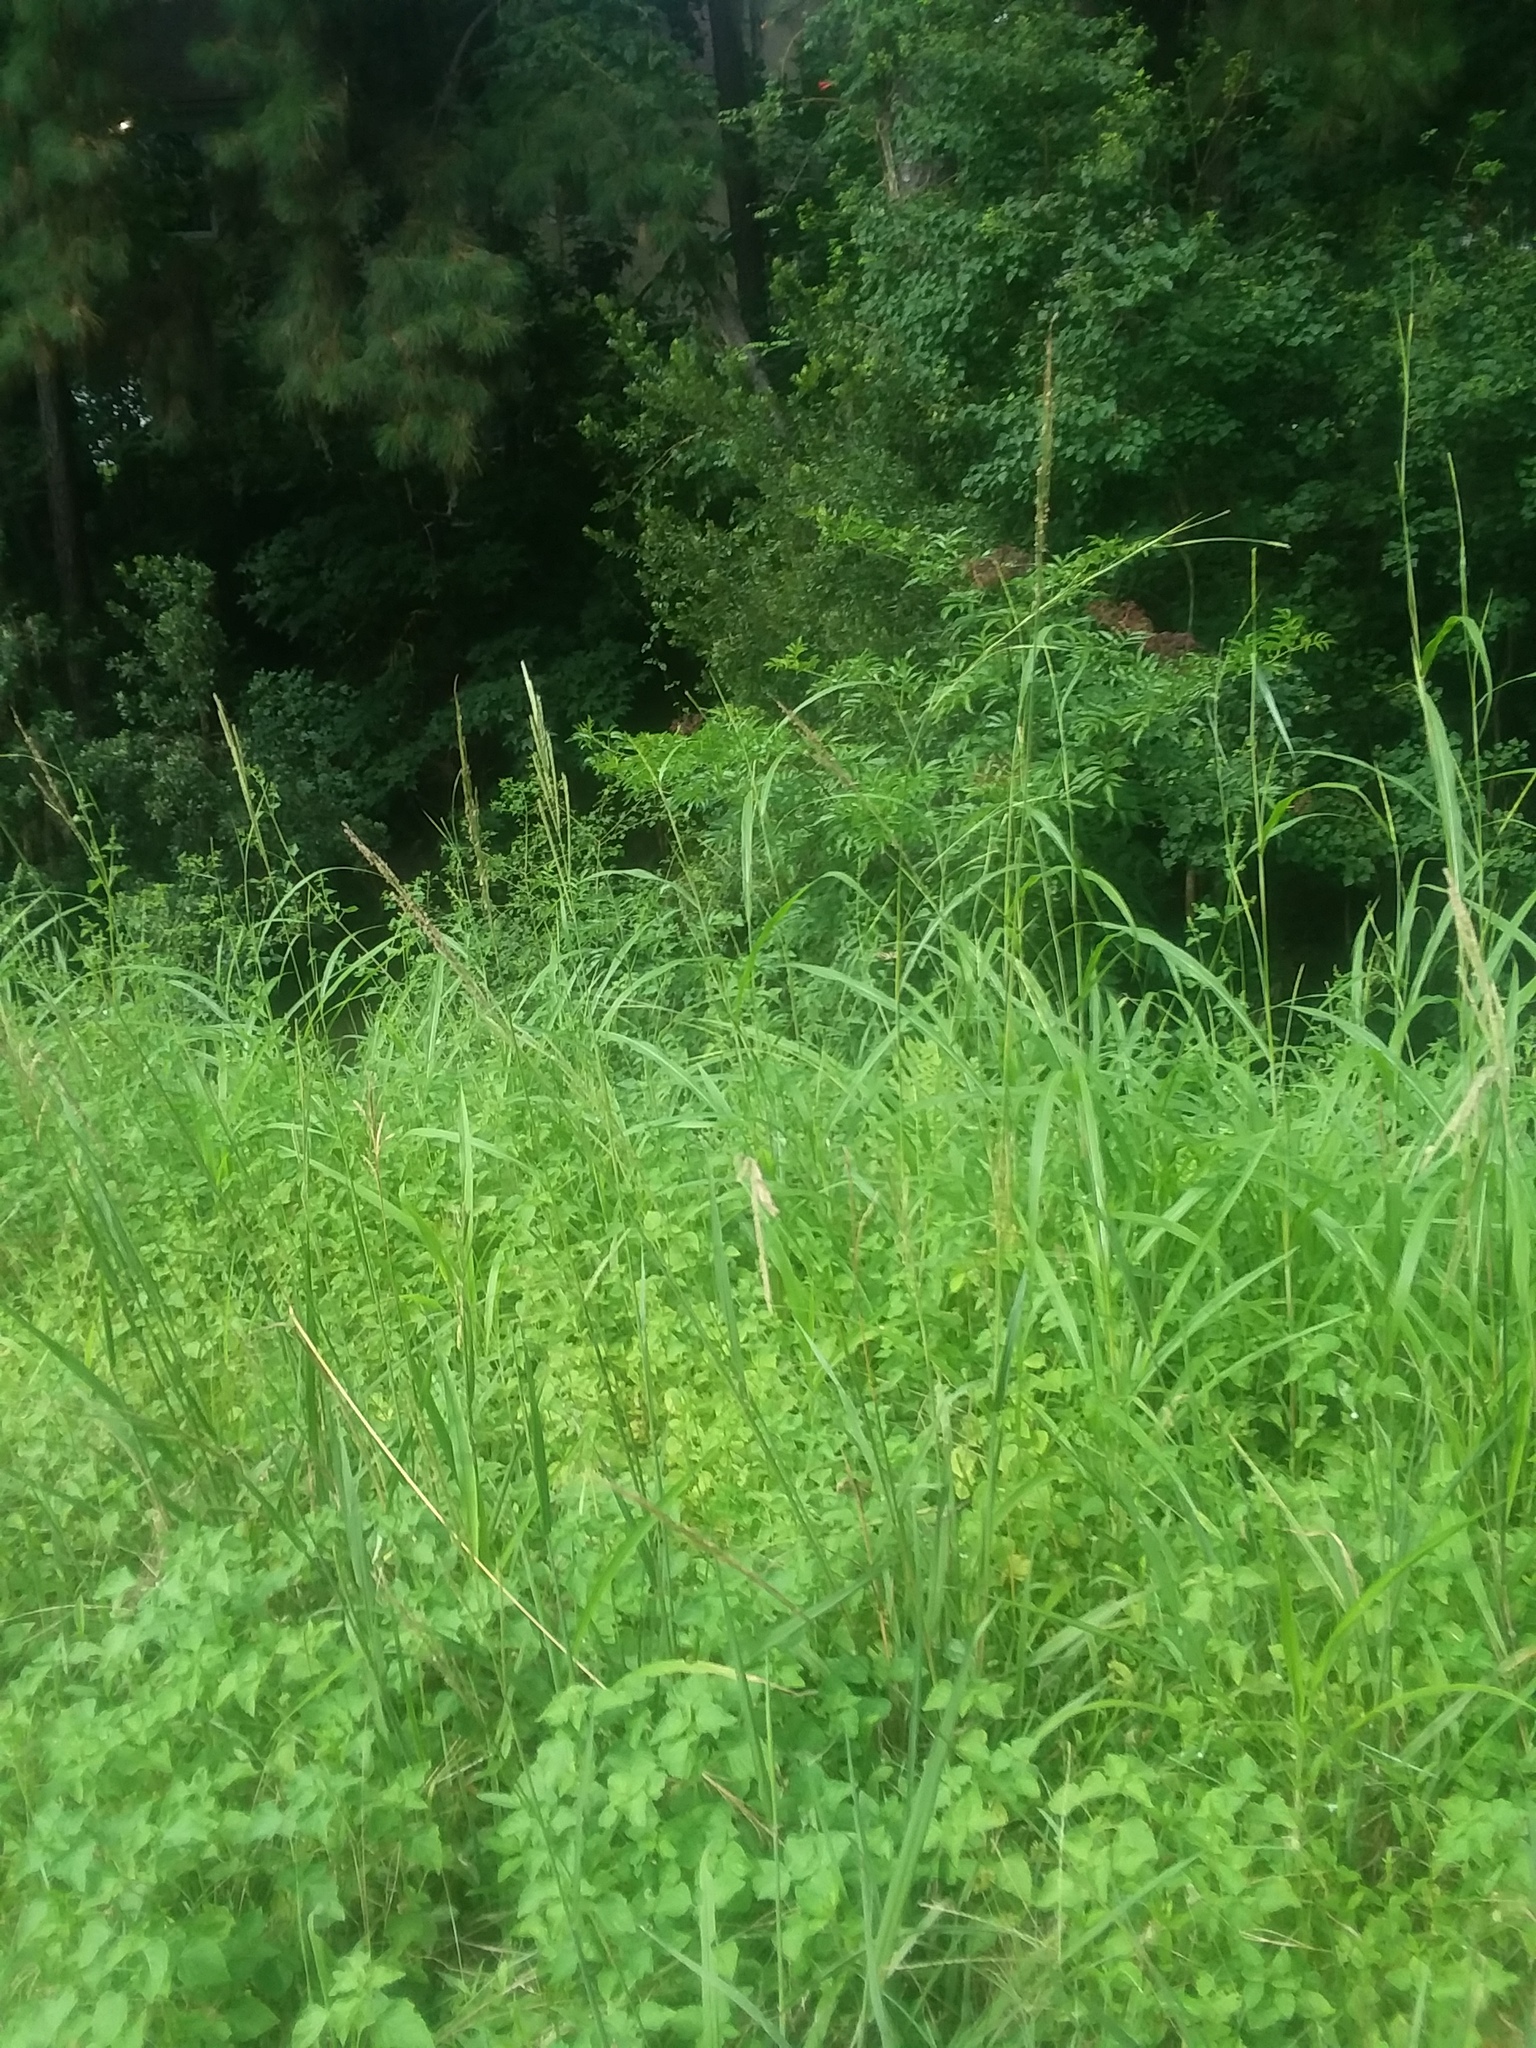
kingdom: Plantae
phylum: Tracheophyta
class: Magnoliopsida
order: Dipsacales
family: Viburnaceae
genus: Sambucus
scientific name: Sambucus canadensis
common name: American elder
